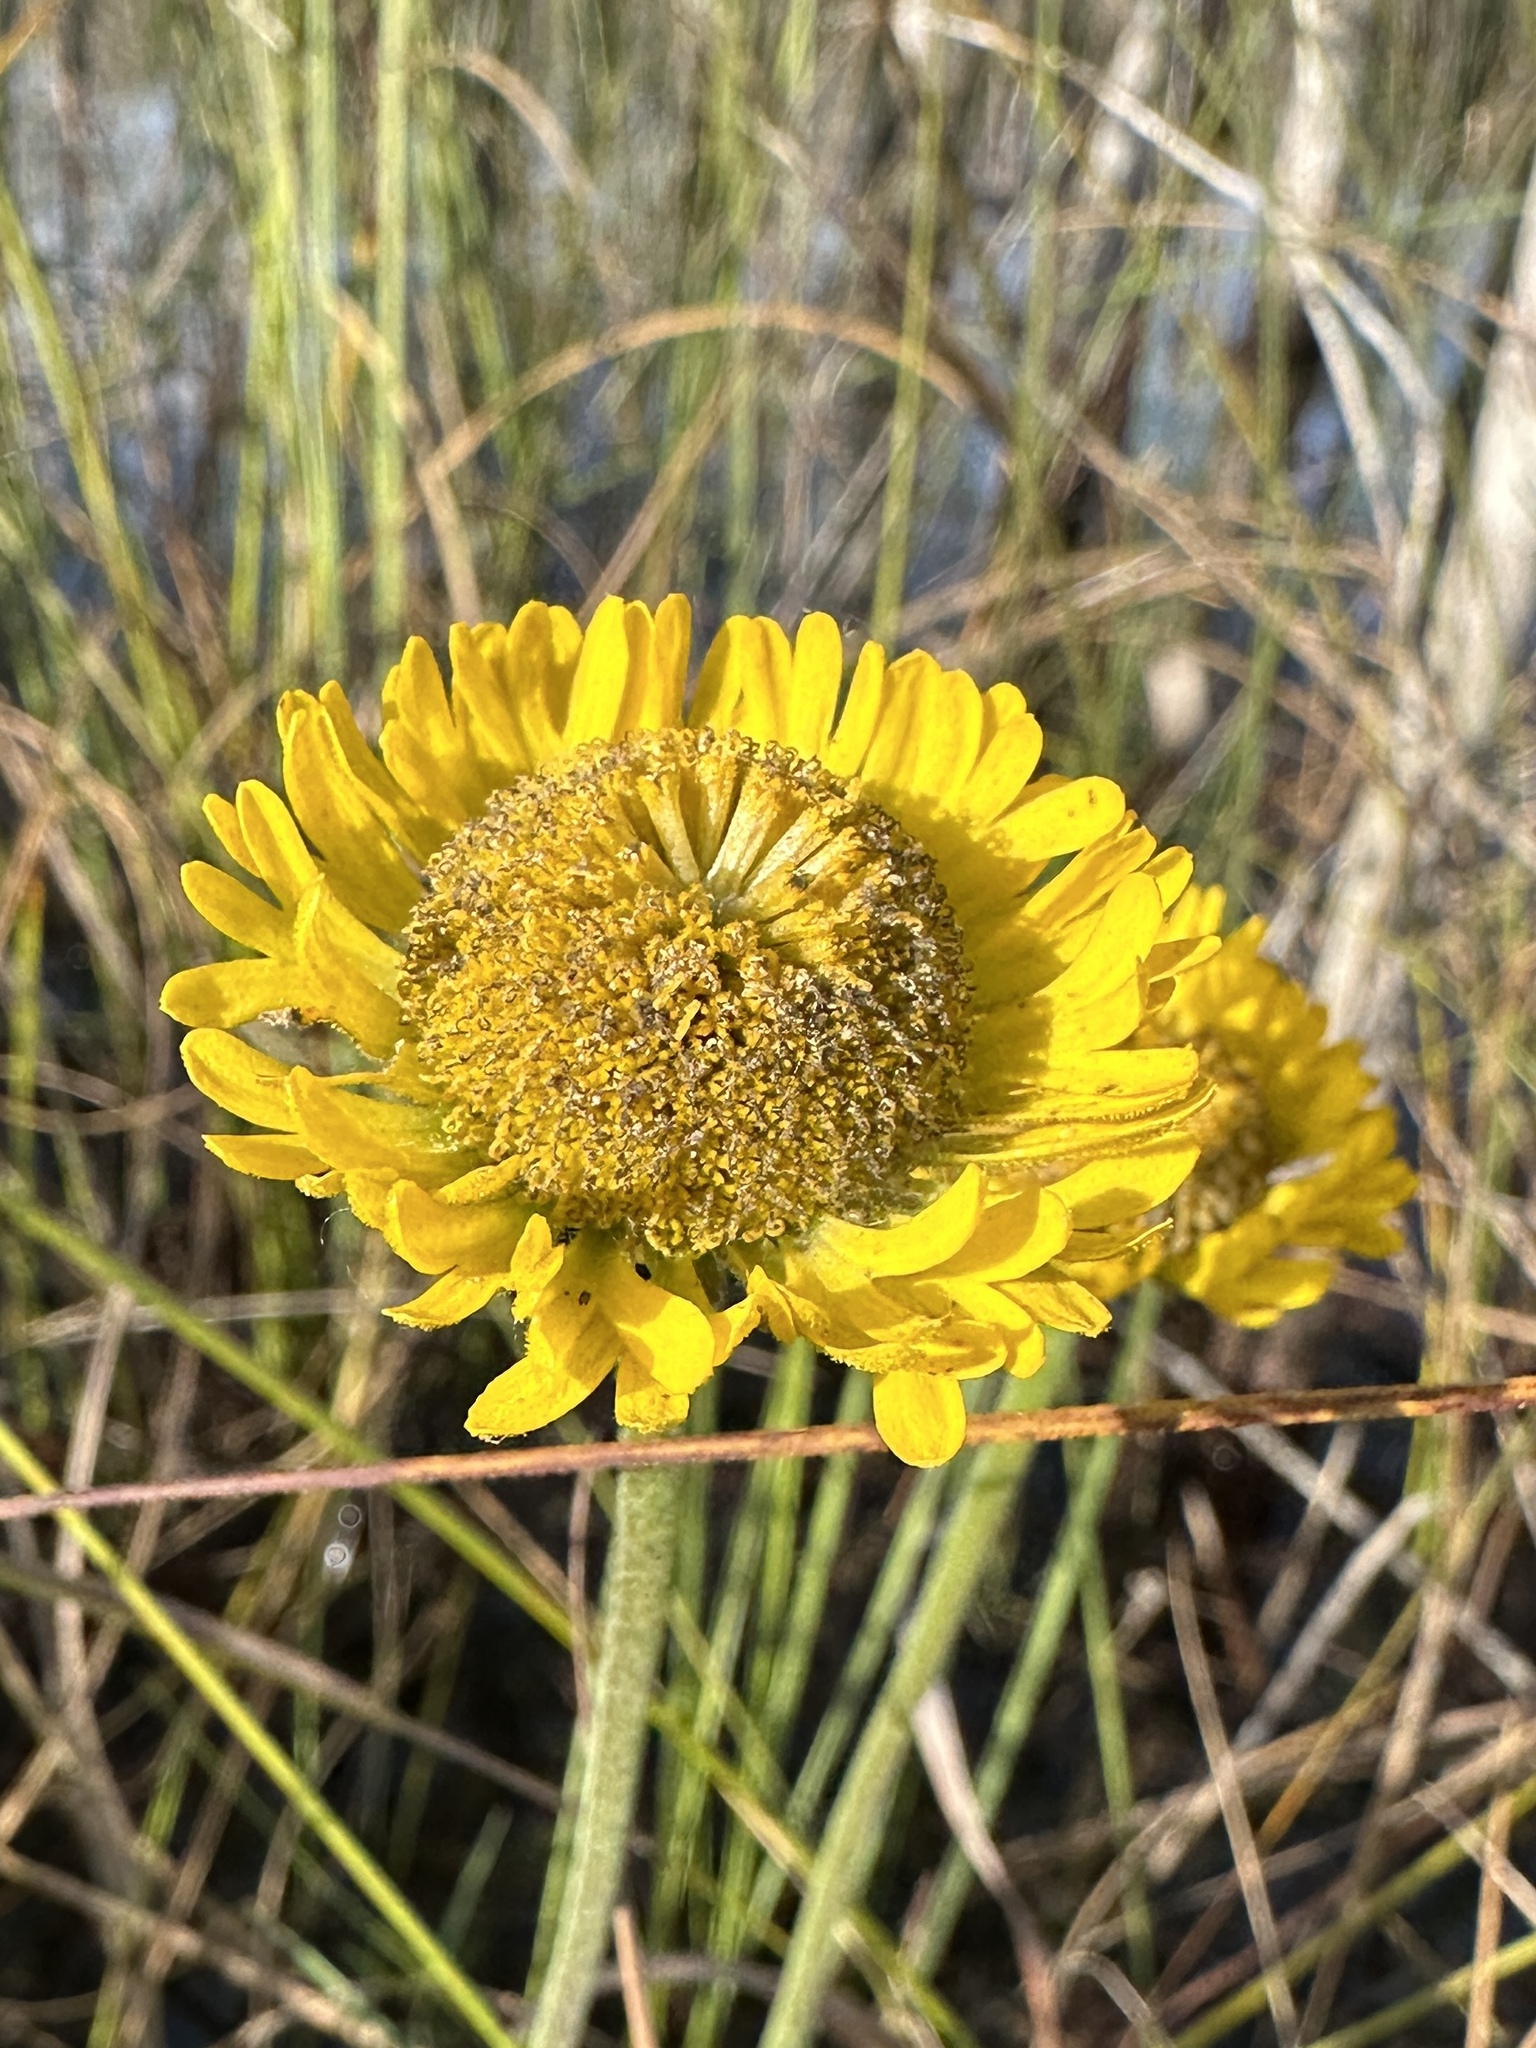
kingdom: Plantae
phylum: Tracheophyta
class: Magnoliopsida
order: Asterales
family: Asteraceae
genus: Helenium
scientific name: Helenium pinnatifidum
